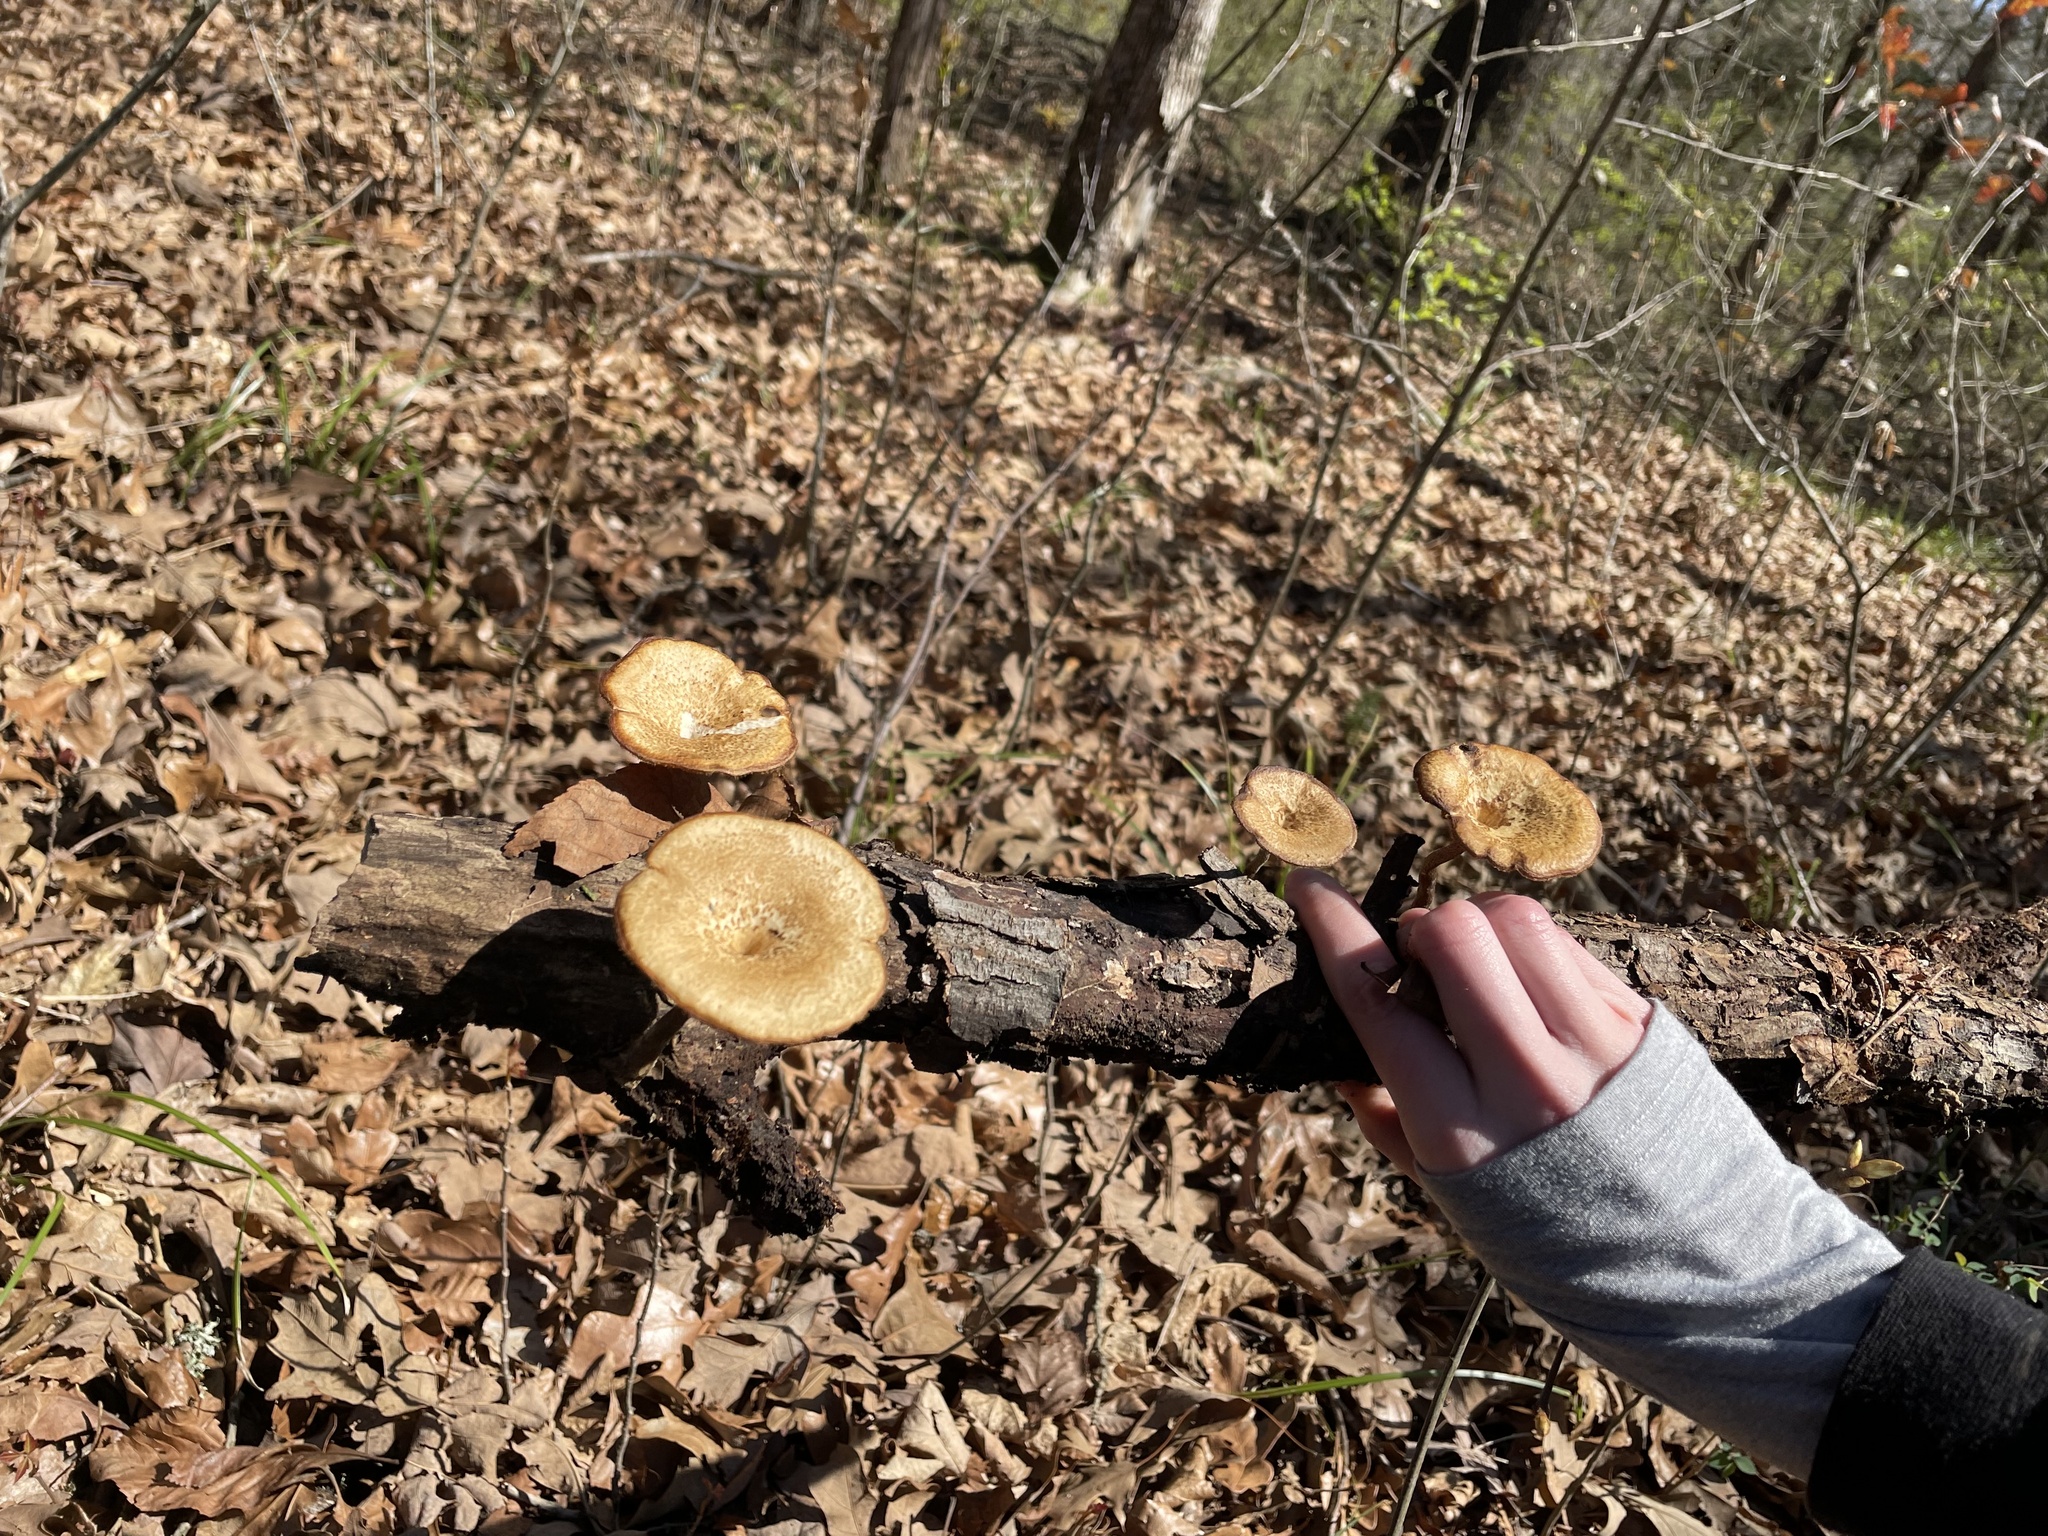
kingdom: Fungi
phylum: Basidiomycota
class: Agaricomycetes
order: Polyporales
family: Polyporaceae
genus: Lentinus
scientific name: Lentinus arcularius
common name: Spring polypore
